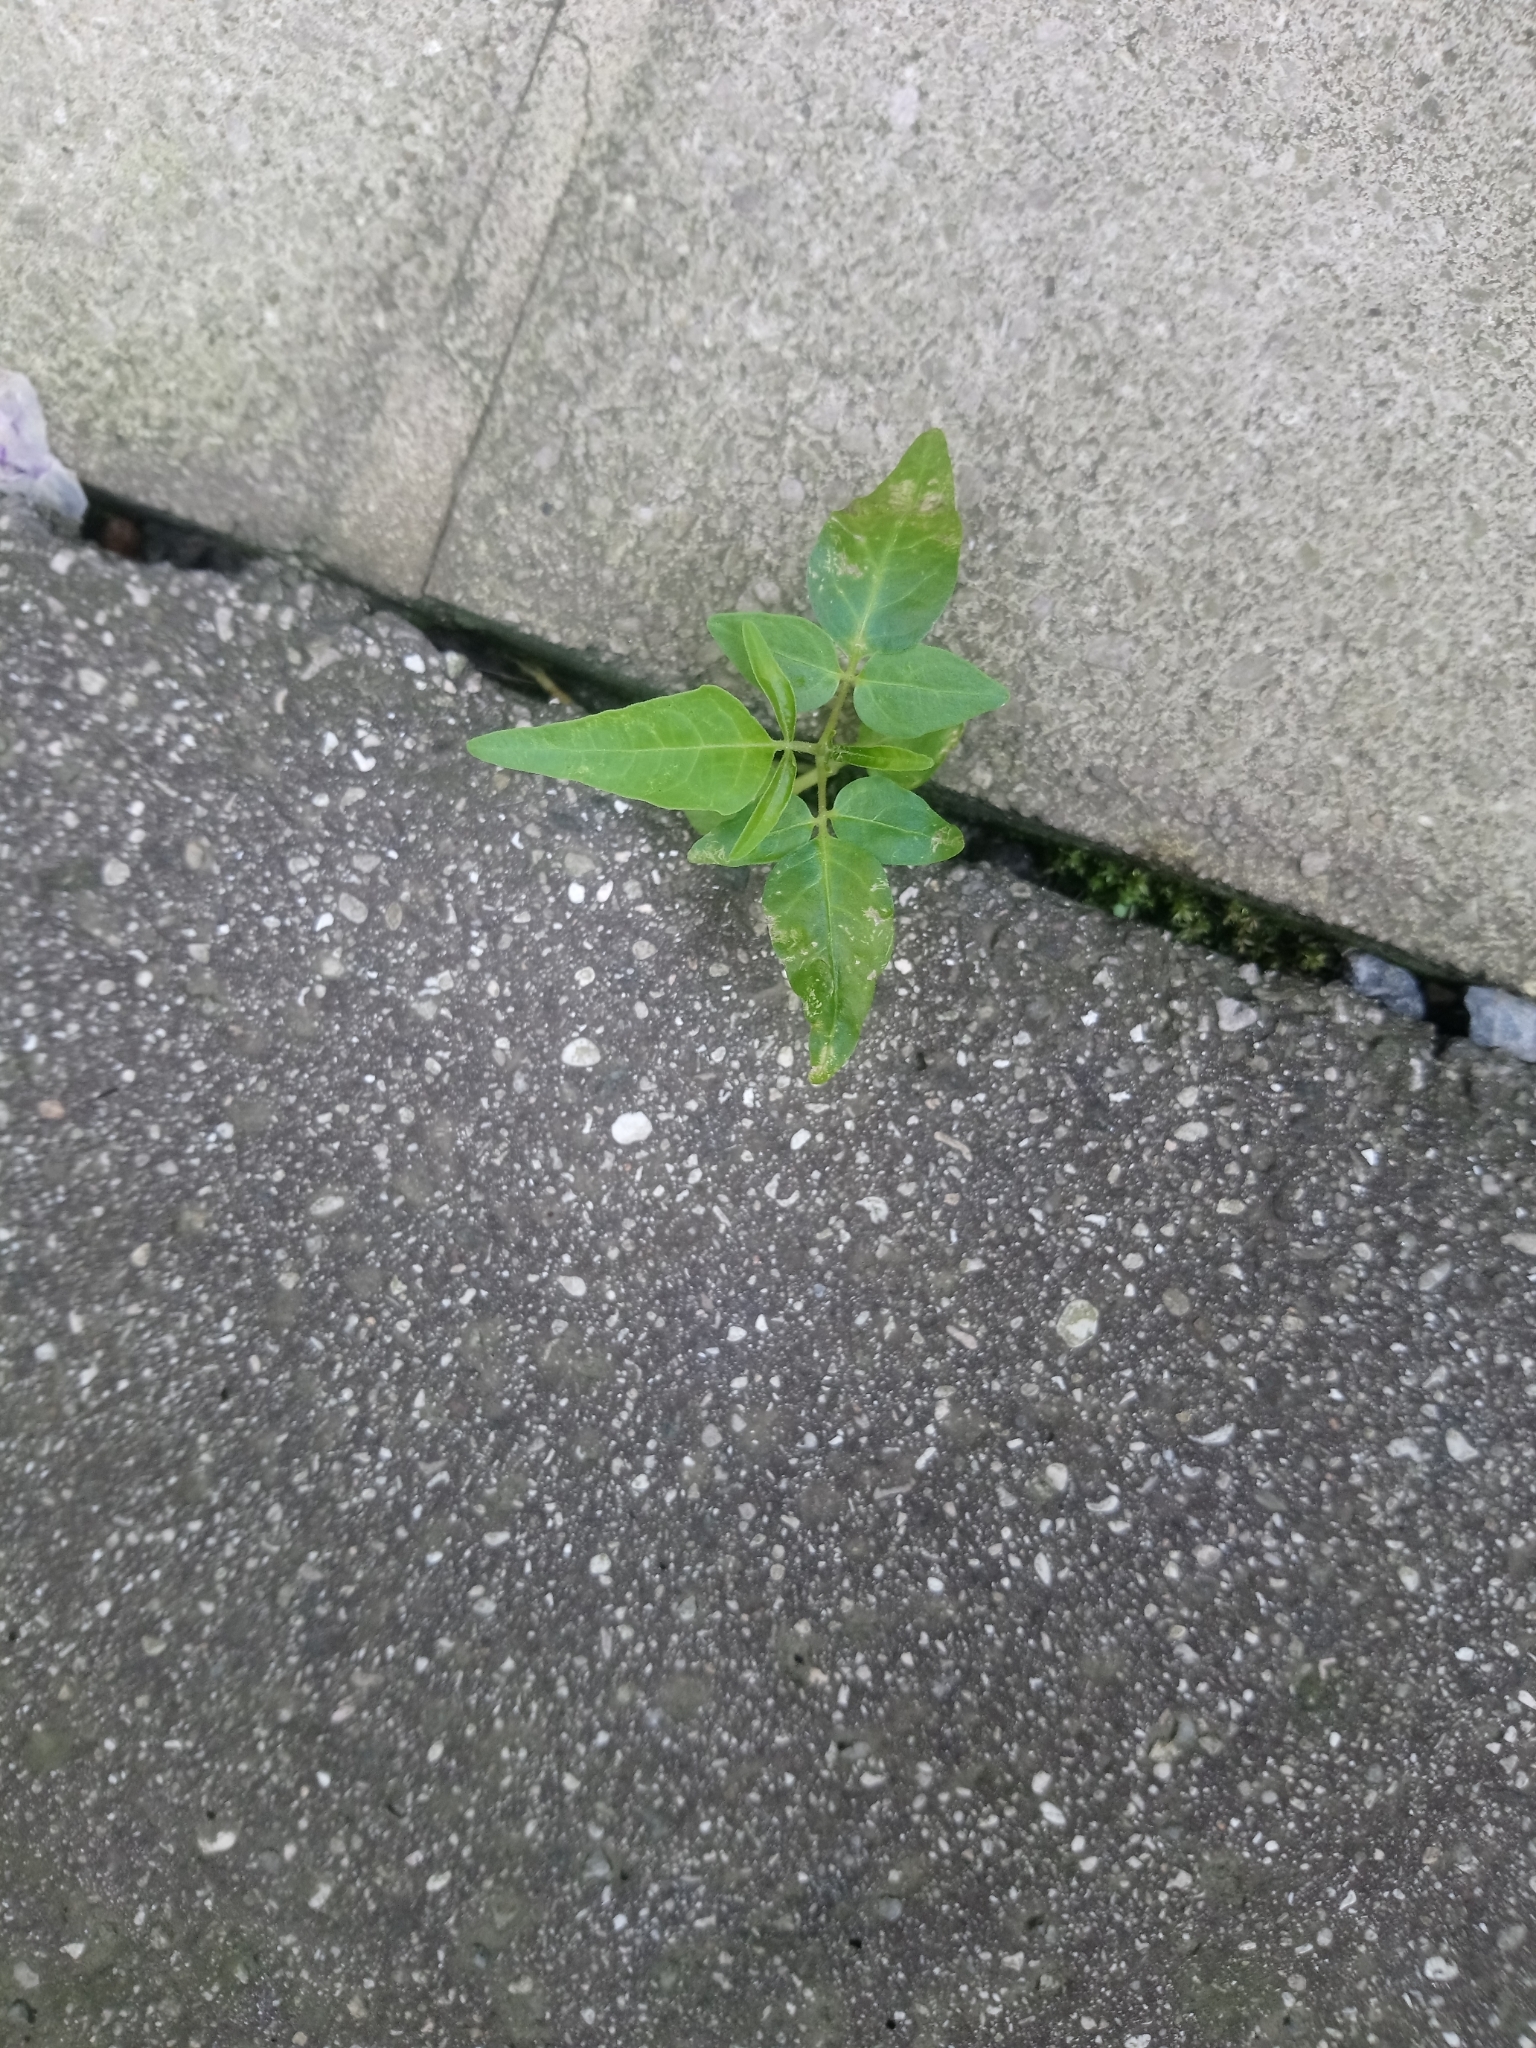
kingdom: Plantae
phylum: Tracheophyta
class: Magnoliopsida
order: Sapindales
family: Simaroubaceae
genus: Ailanthus
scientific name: Ailanthus altissima
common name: Tree-of-heaven
